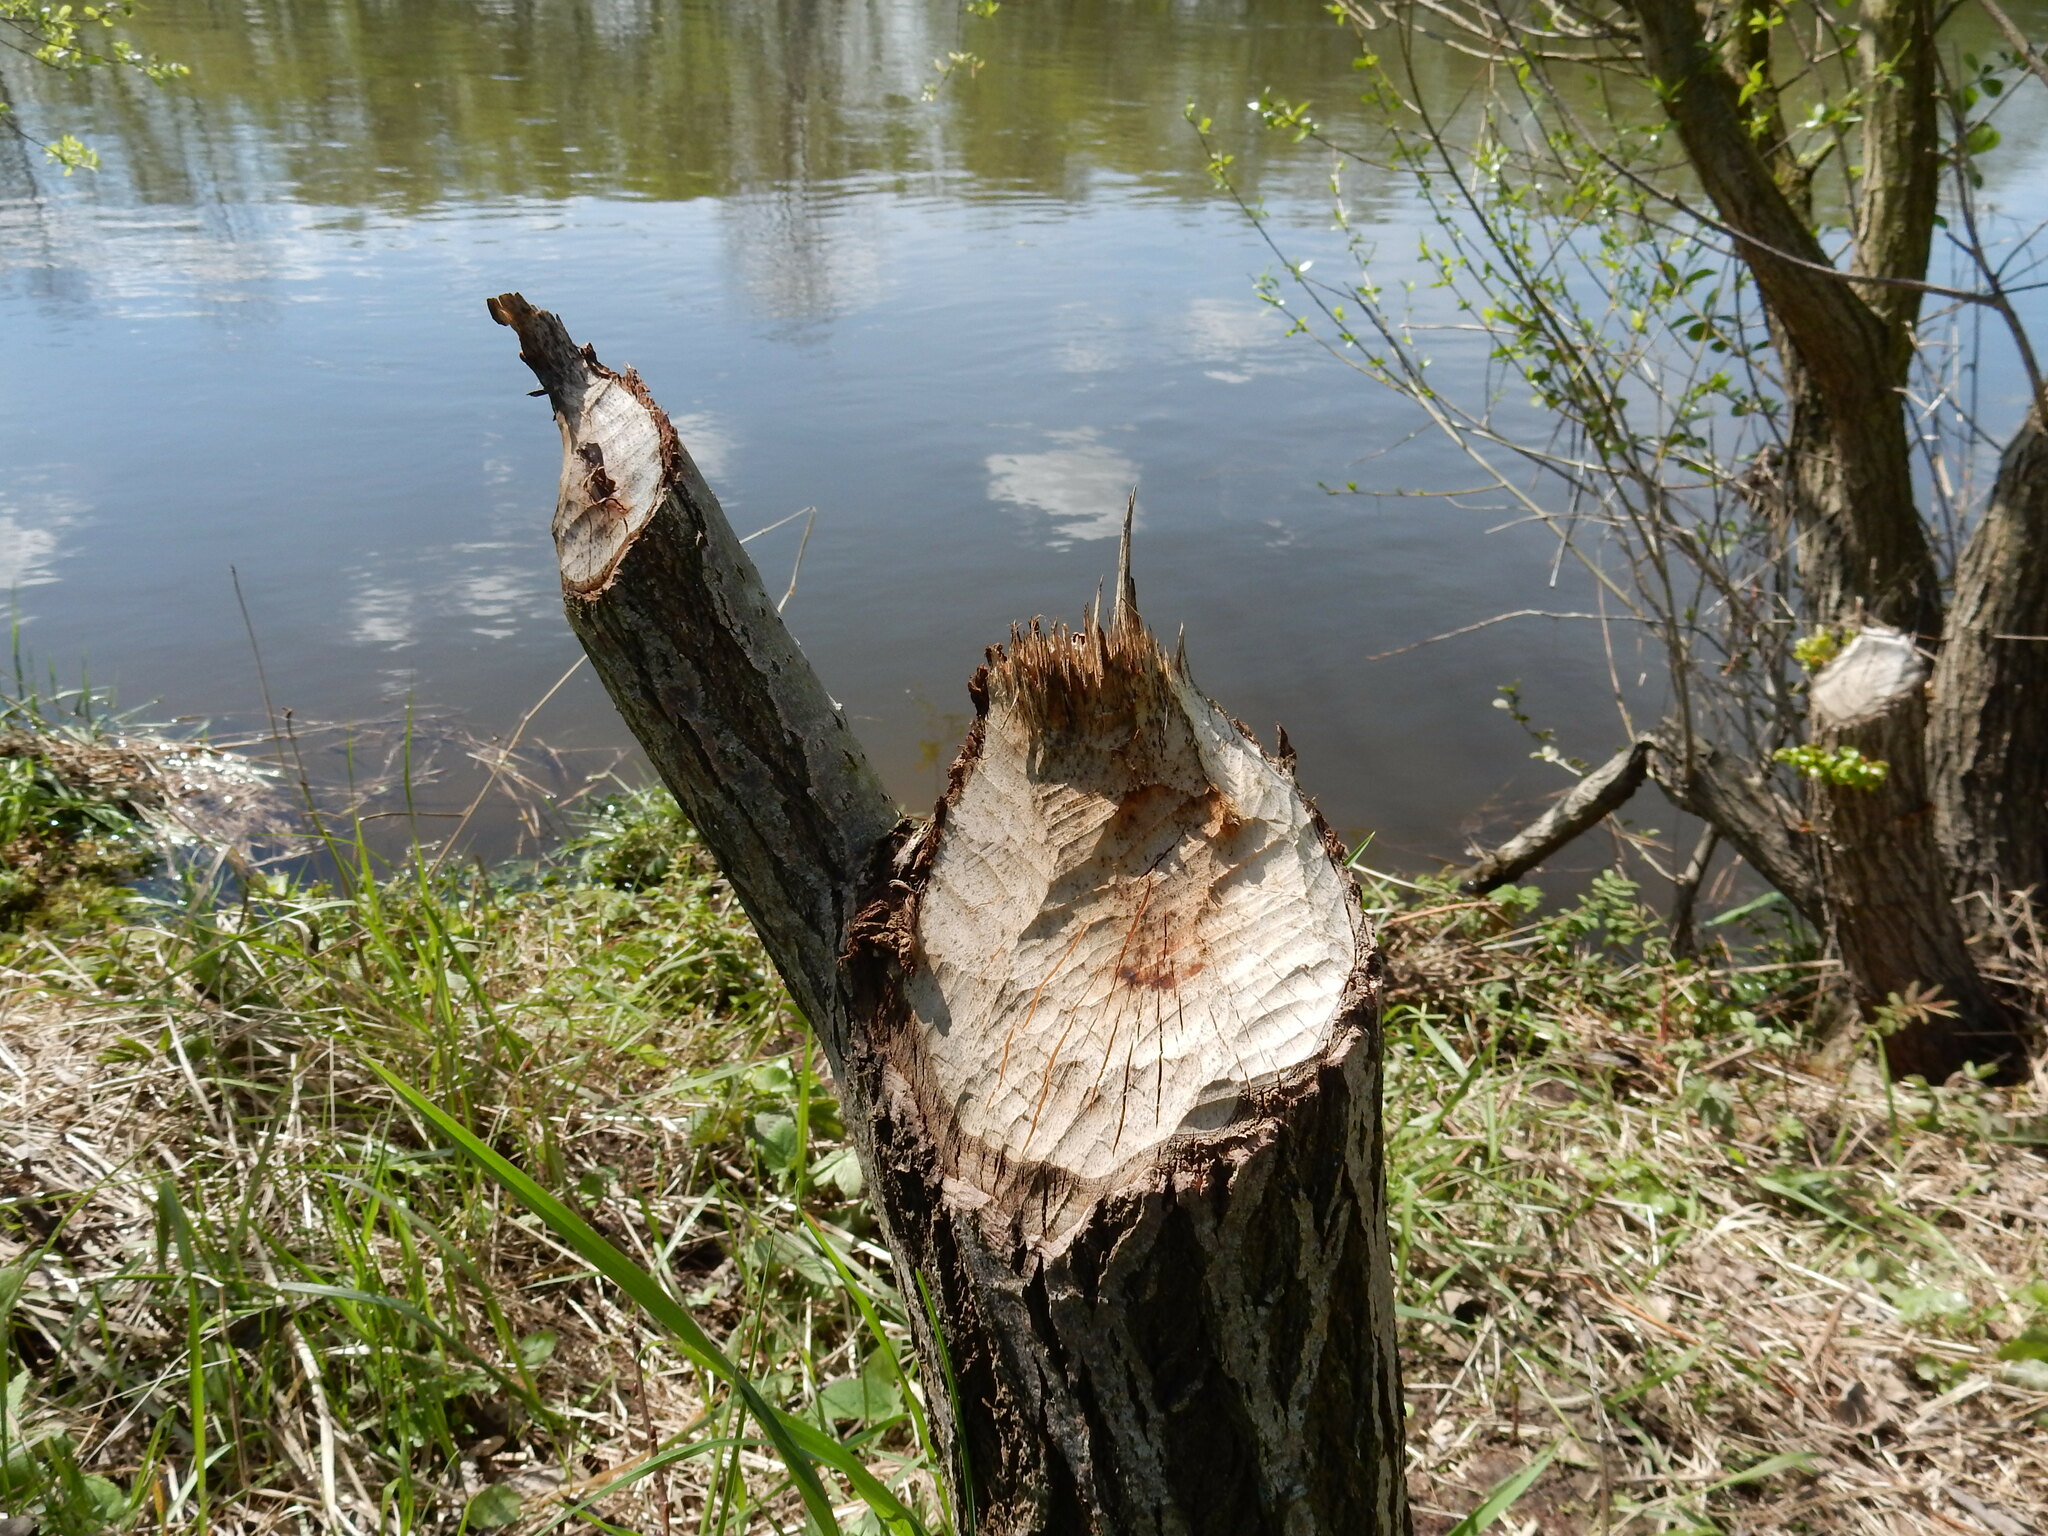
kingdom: Animalia
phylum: Chordata
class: Mammalia
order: Rodentia
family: Castoridae
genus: Castor
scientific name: Castor fiber
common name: Eurasian beaver
